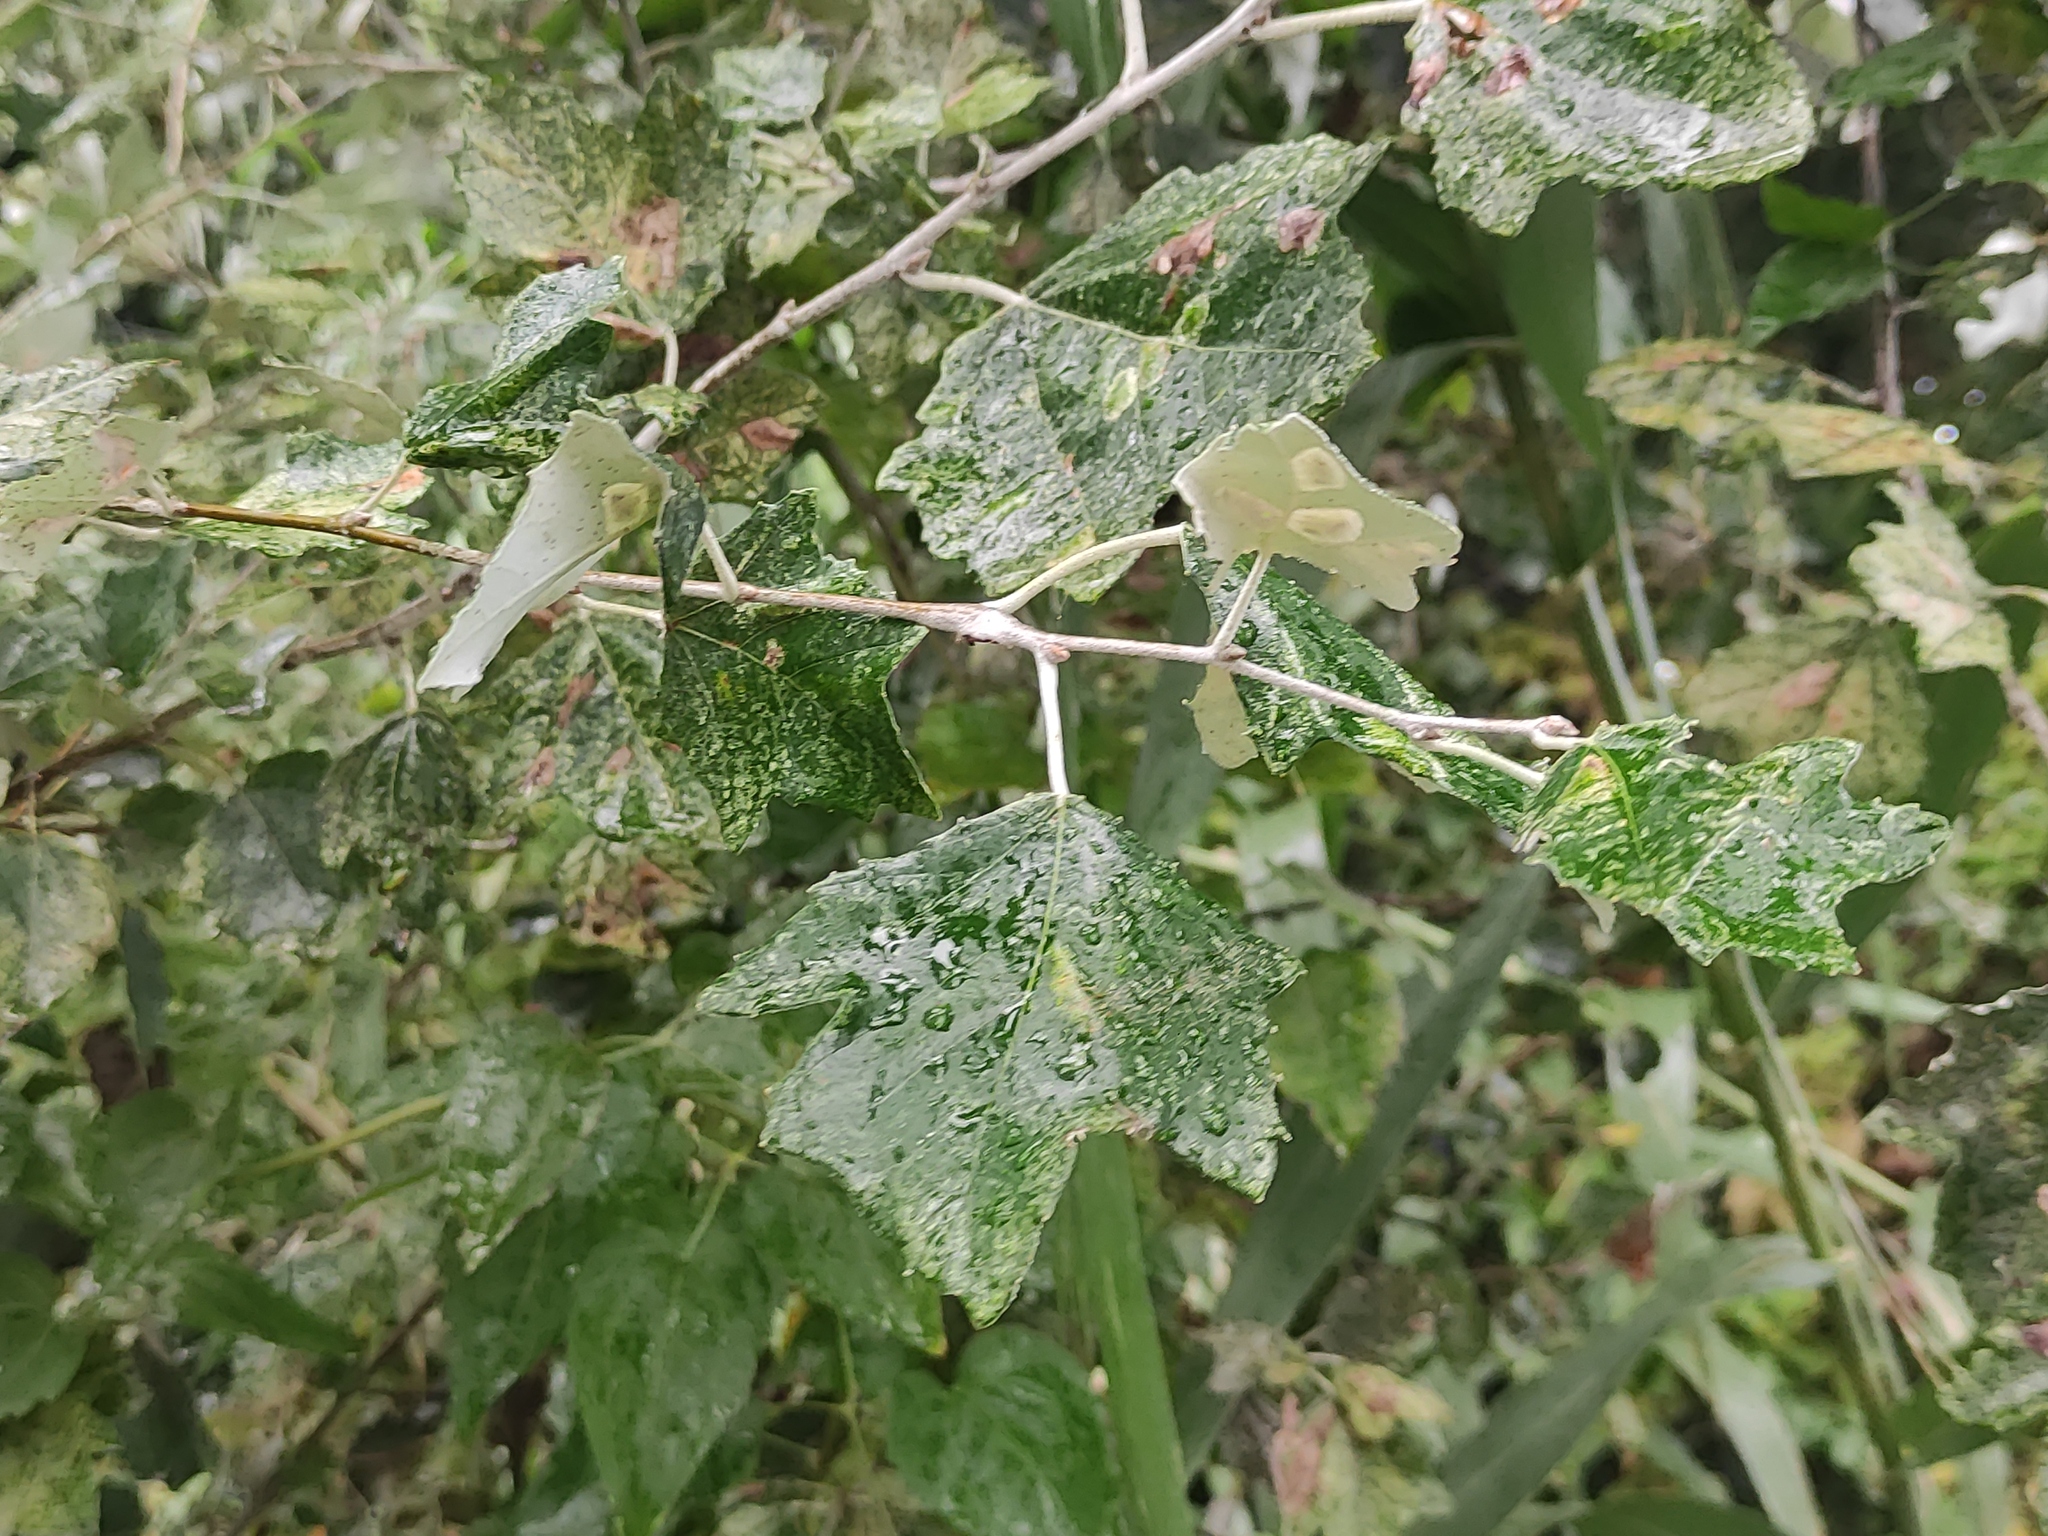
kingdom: Plantae
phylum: Tracheophyta
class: Magnoliopsida
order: Malpighiales
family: Salicaceae
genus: Populus
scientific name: Populus alba
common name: White poplar
